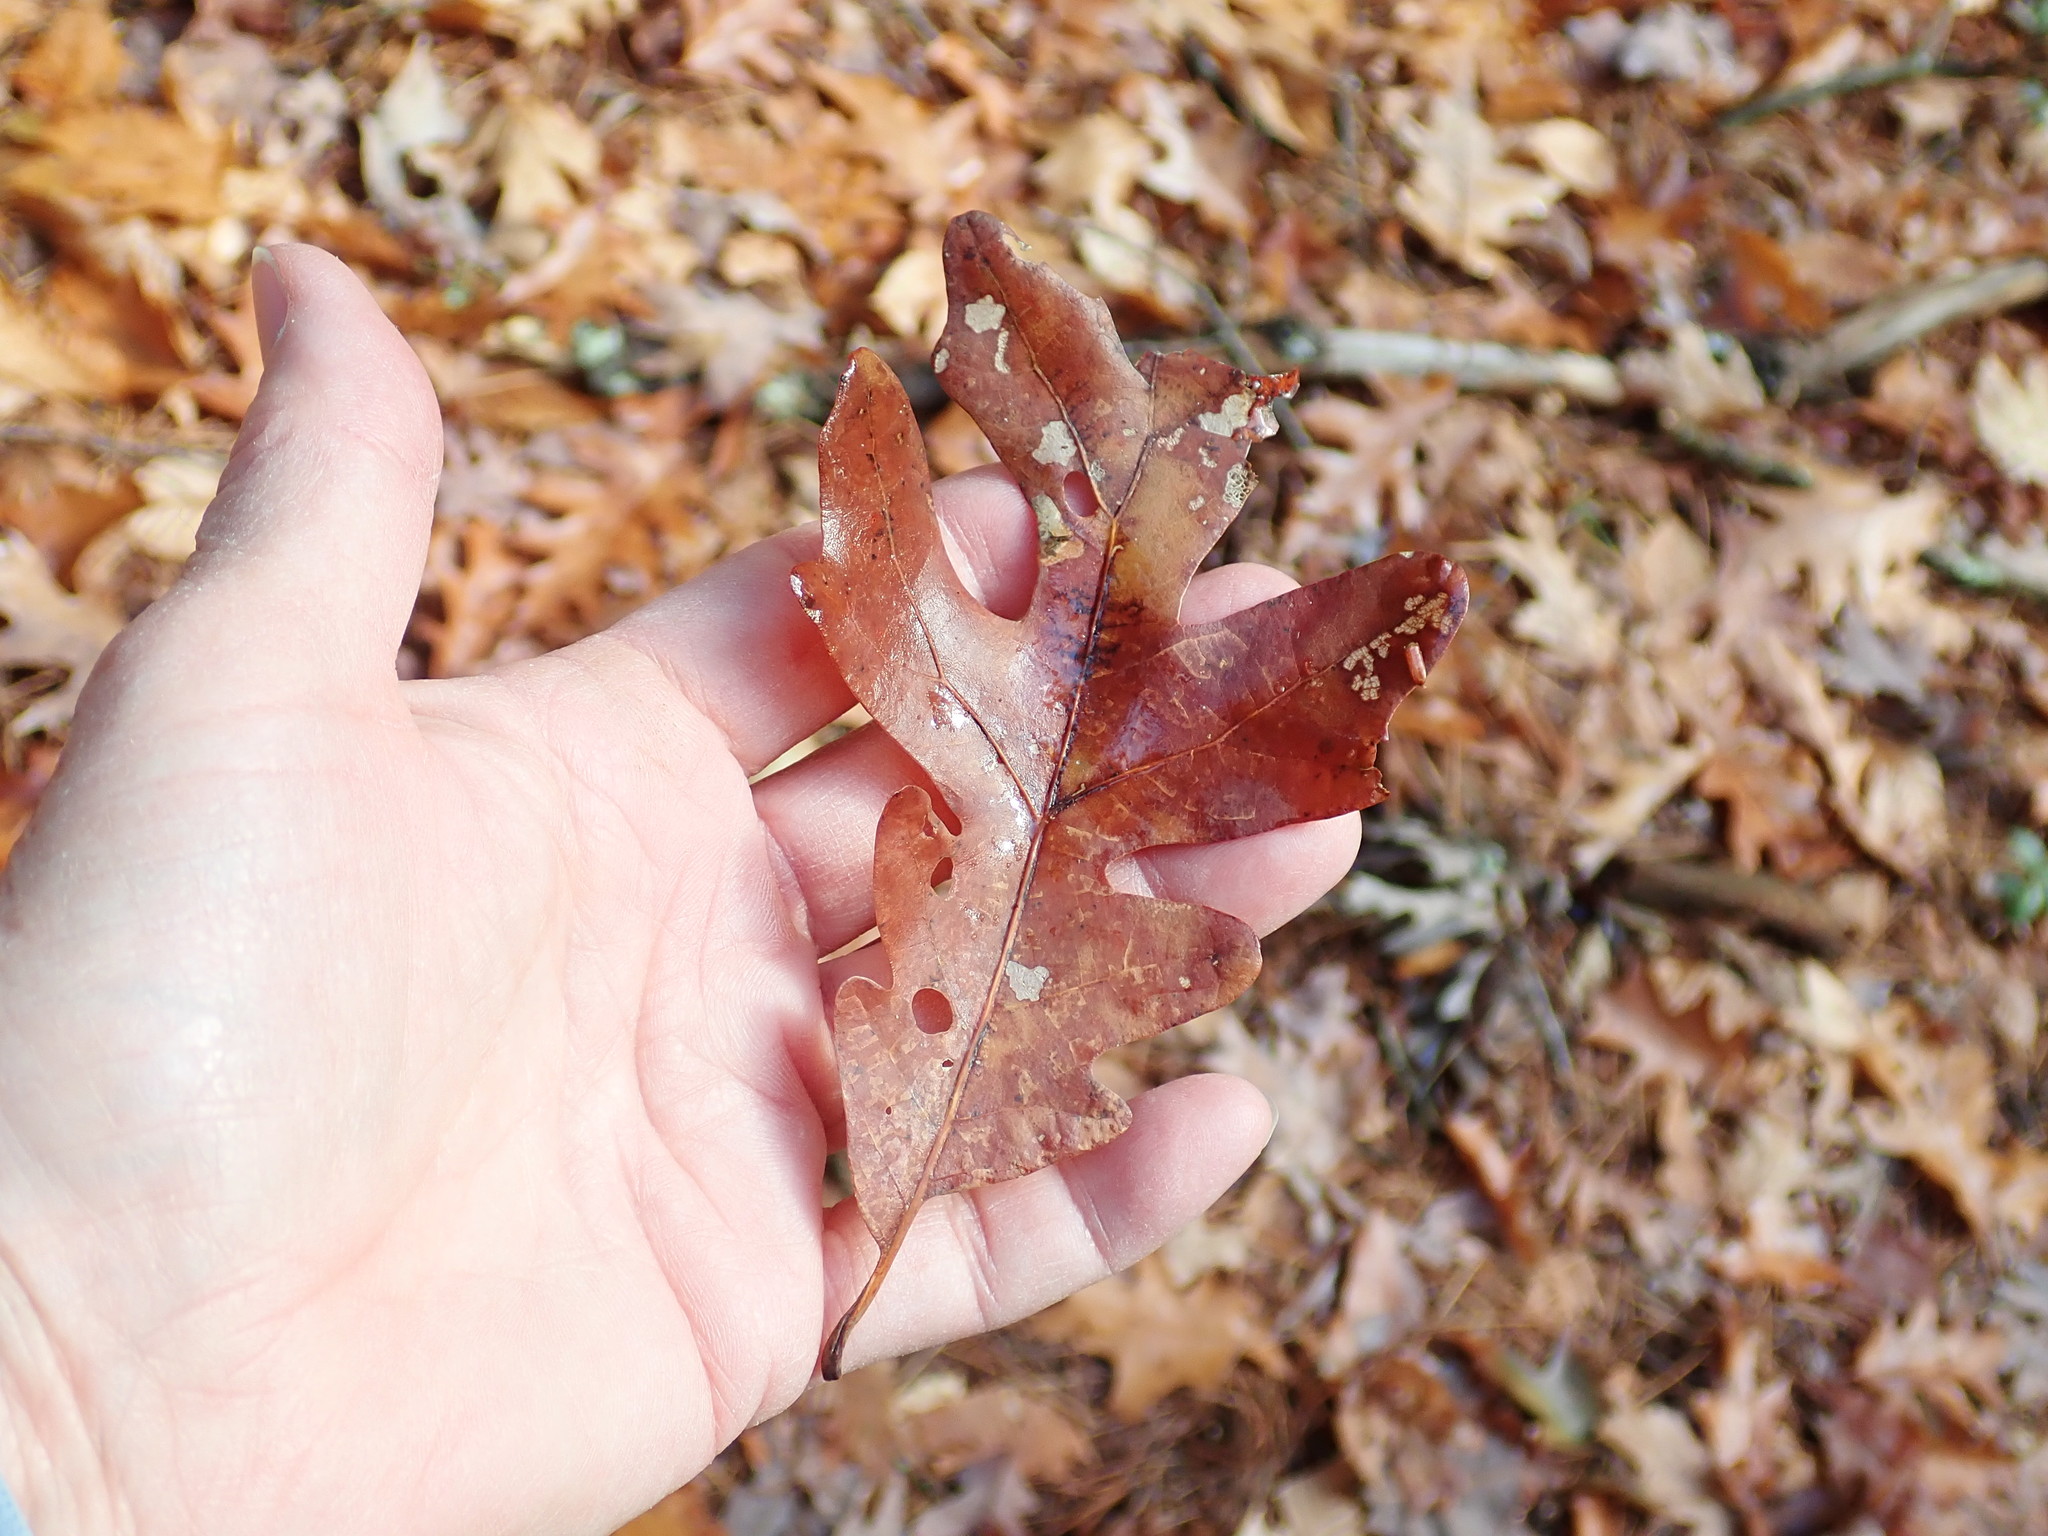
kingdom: Plantae
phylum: Tracheophyta
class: Magnoliopsida
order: Fagales
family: Fagaceae
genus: Quercus
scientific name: Quercus alba
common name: White oak
